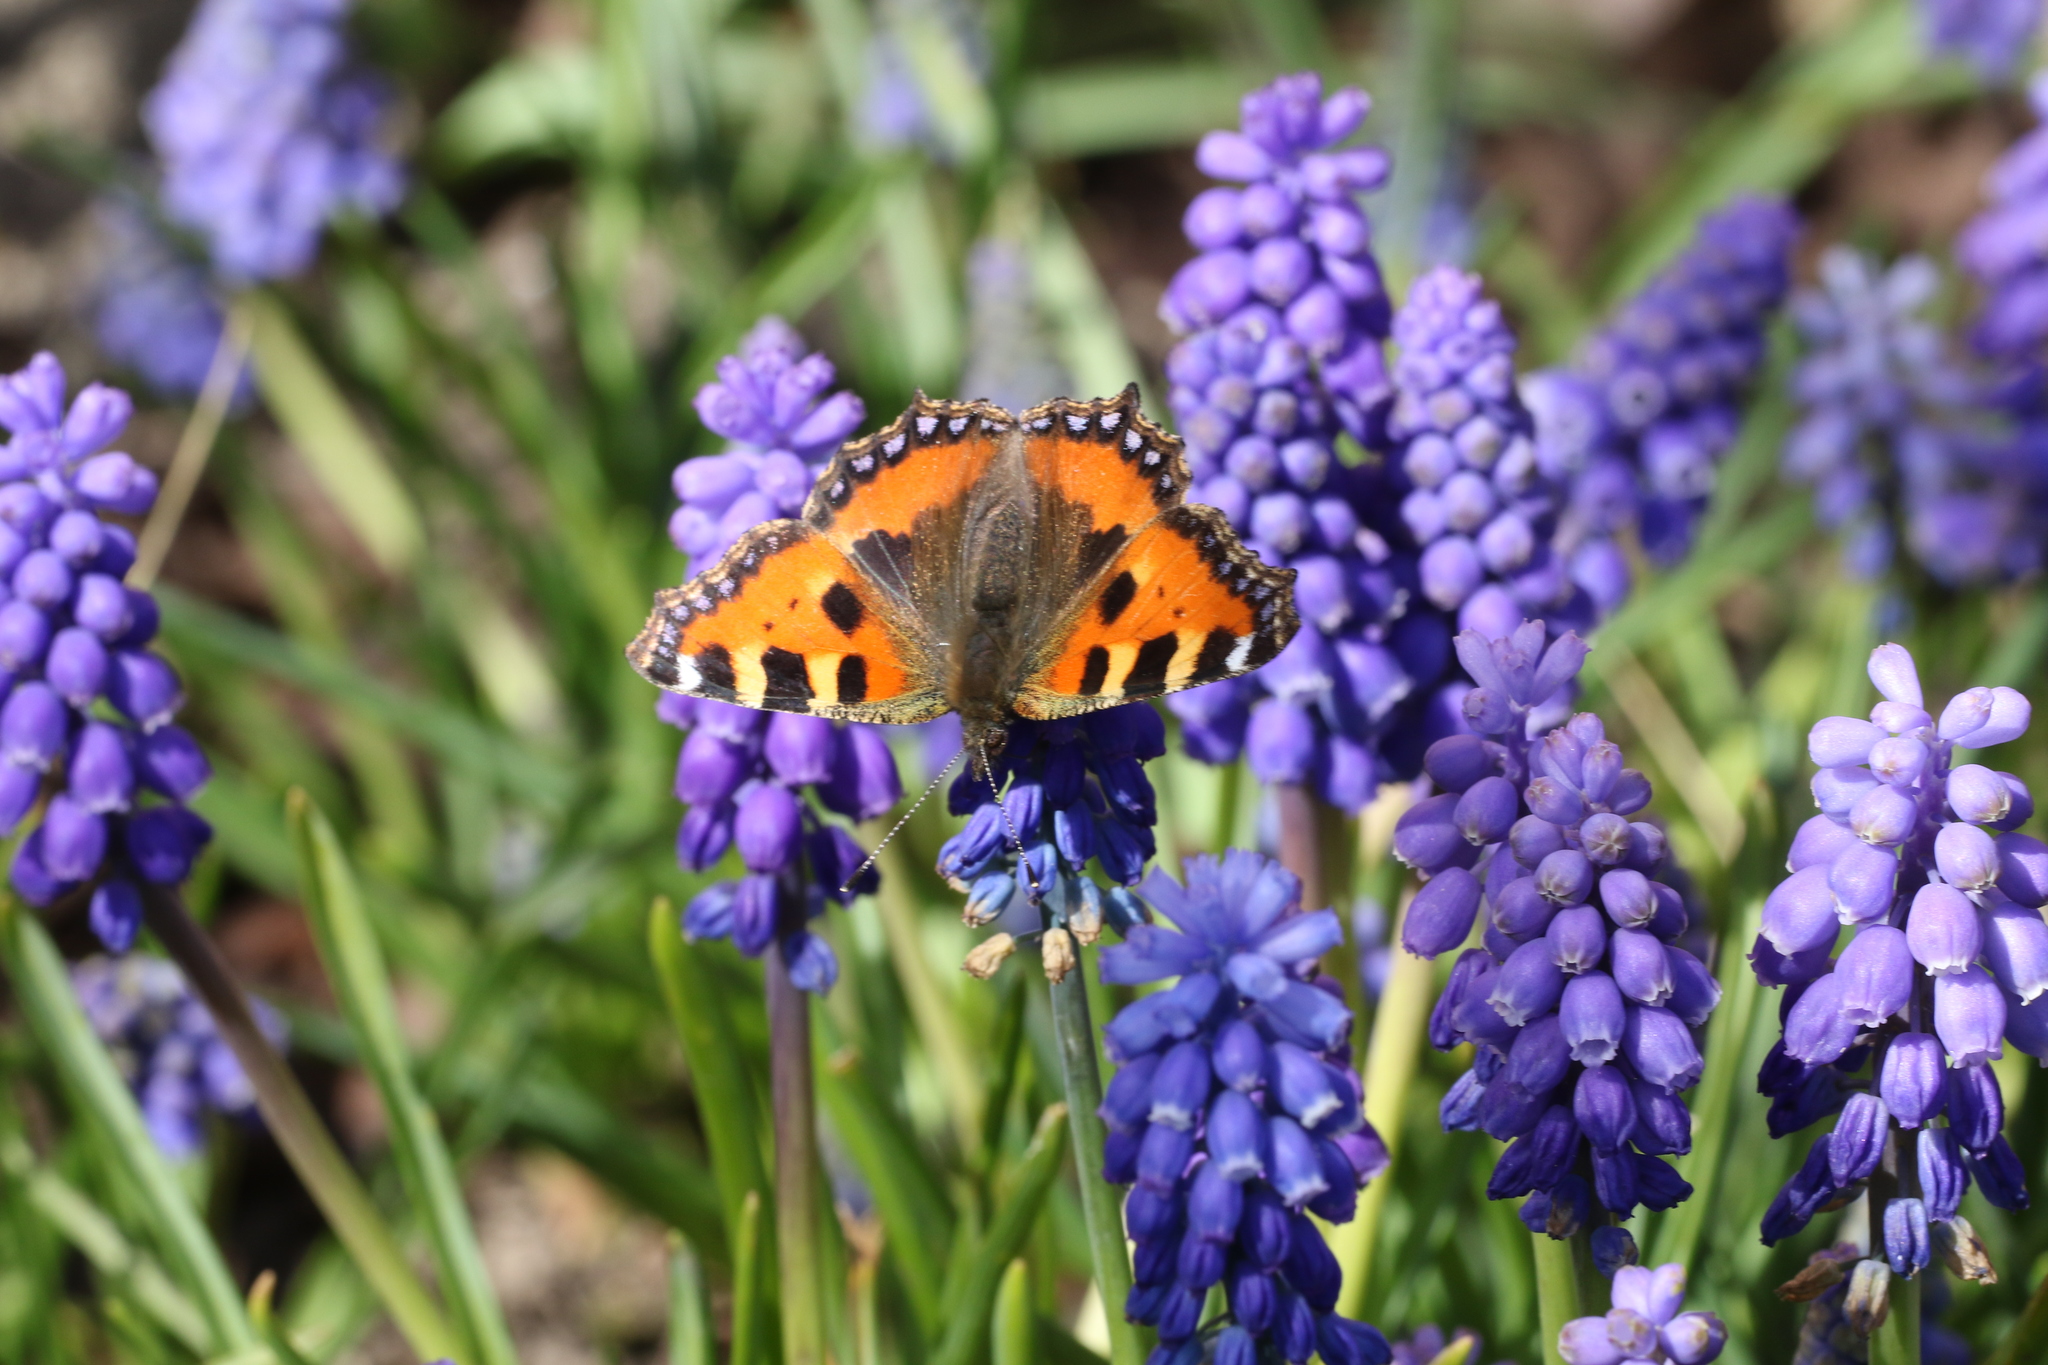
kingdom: Animalia
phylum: Arthropoda
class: Insecta
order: Lepidoptera
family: Nymphalidae
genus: Aglais
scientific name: Aglais urticae
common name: Small tortoiseshell
